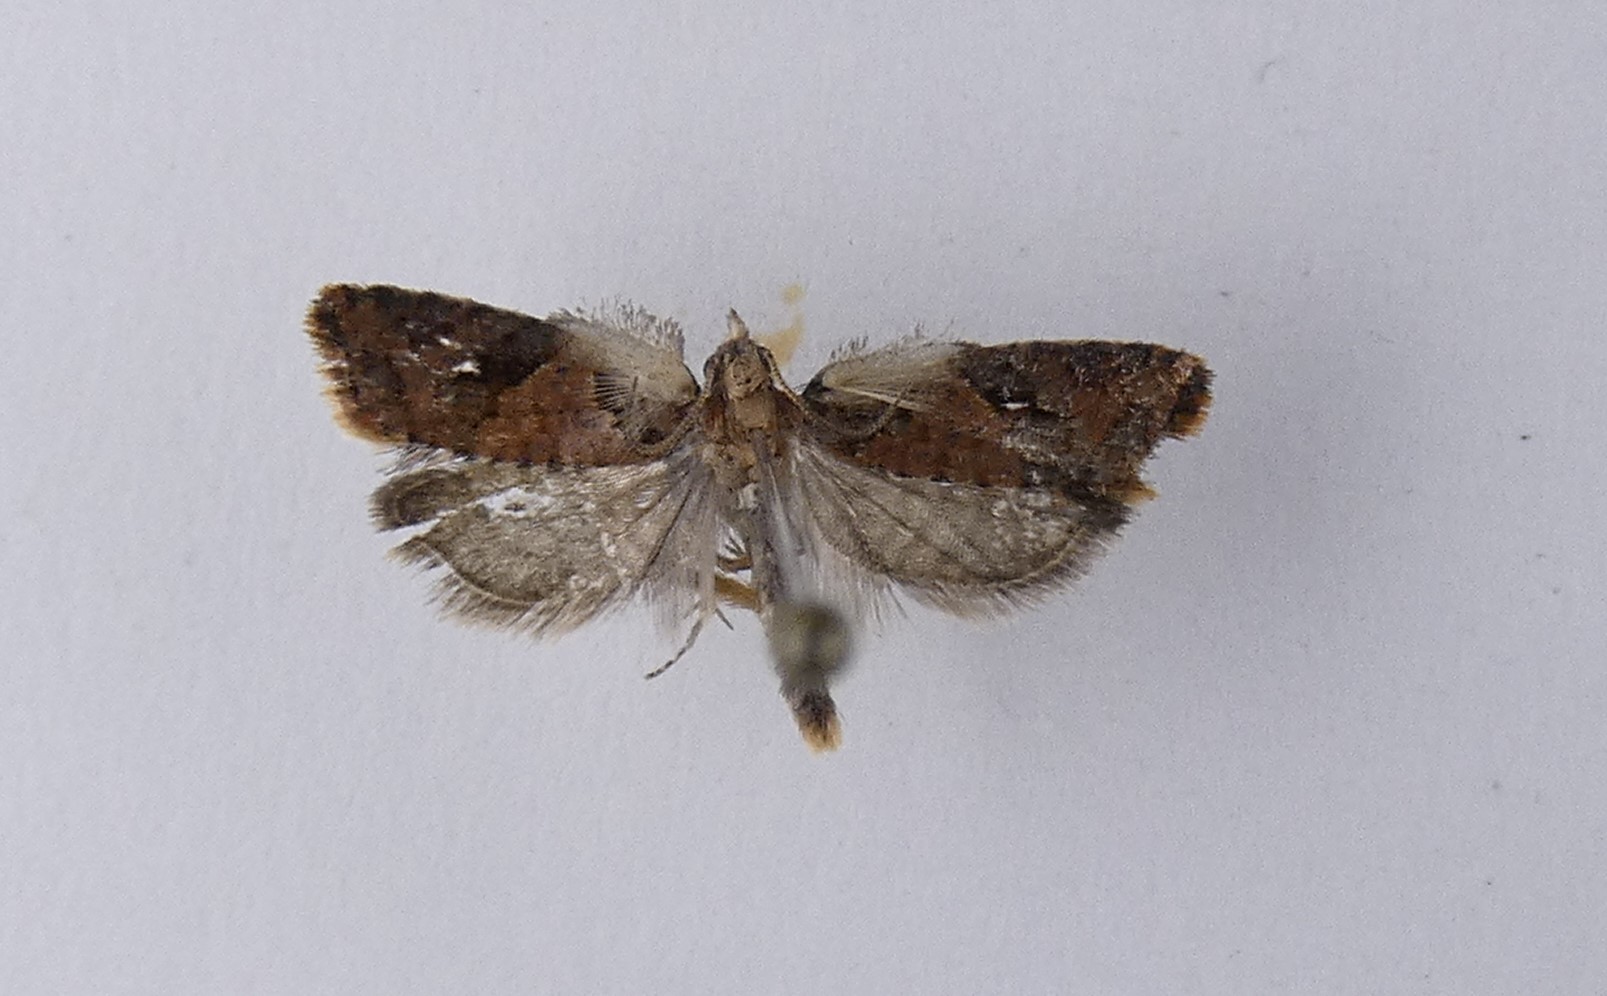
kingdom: Animalia
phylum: Arthropoda
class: Insecta
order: Lepidoptera
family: Tortricidae
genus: Capua
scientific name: Capua semiferana
